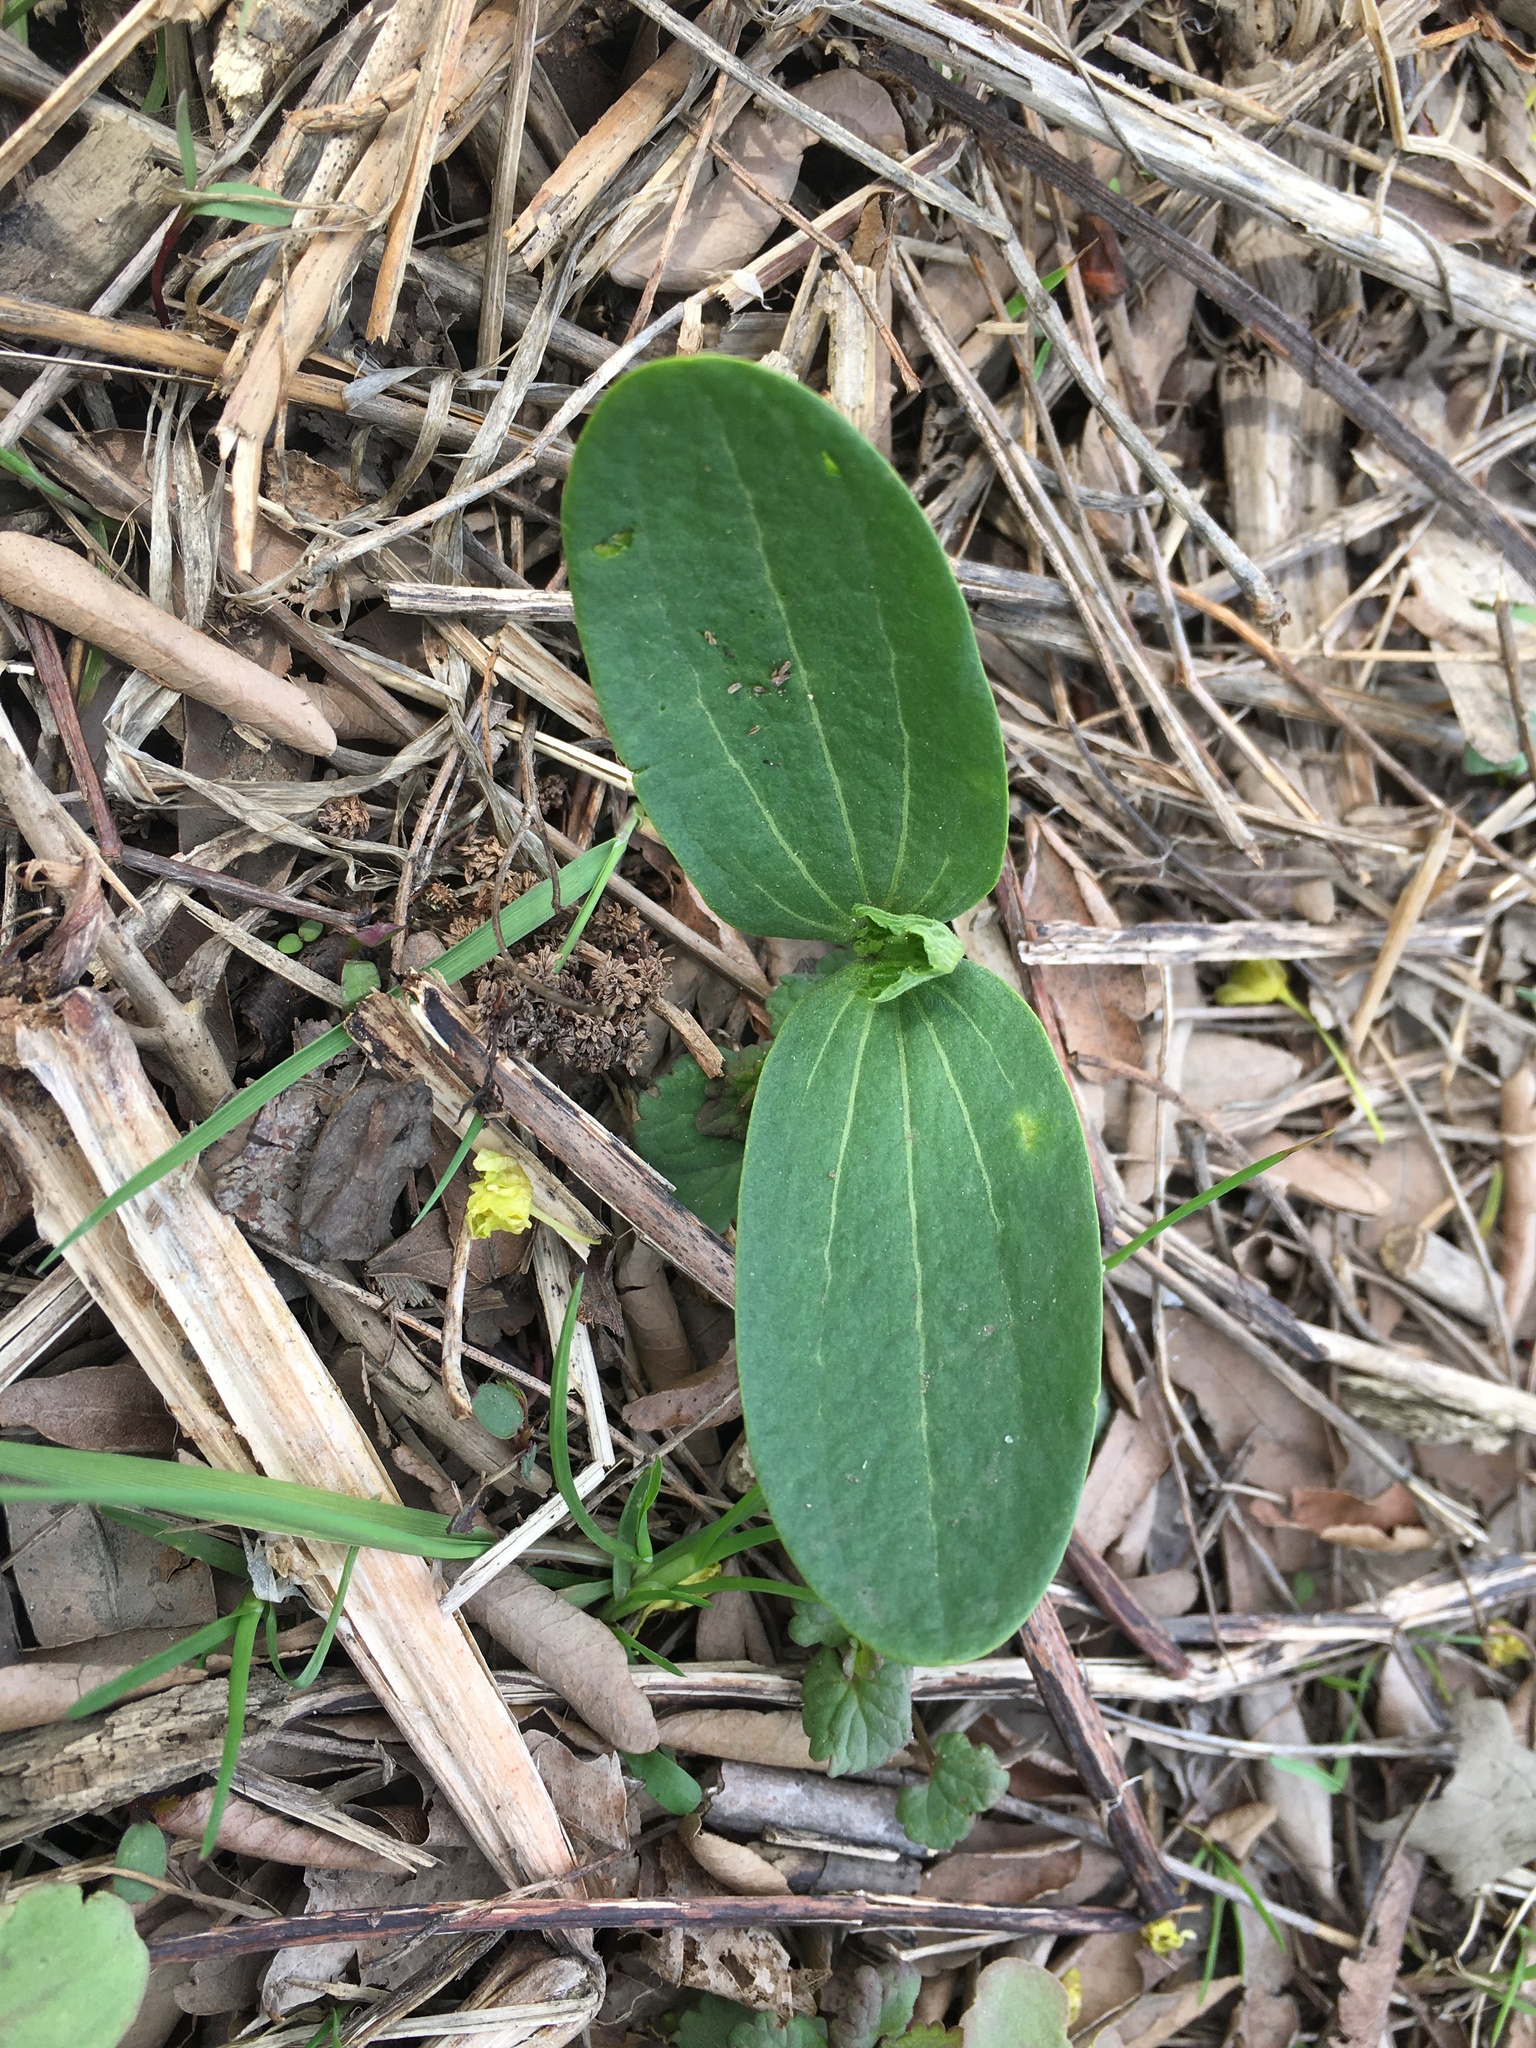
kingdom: Plantae
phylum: Tracheophyta
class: Magnoliopsida
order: Cucurbitales
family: Cucurbitaceae
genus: Echinocystis
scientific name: Echinocystis lobata
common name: Wild cucumber
